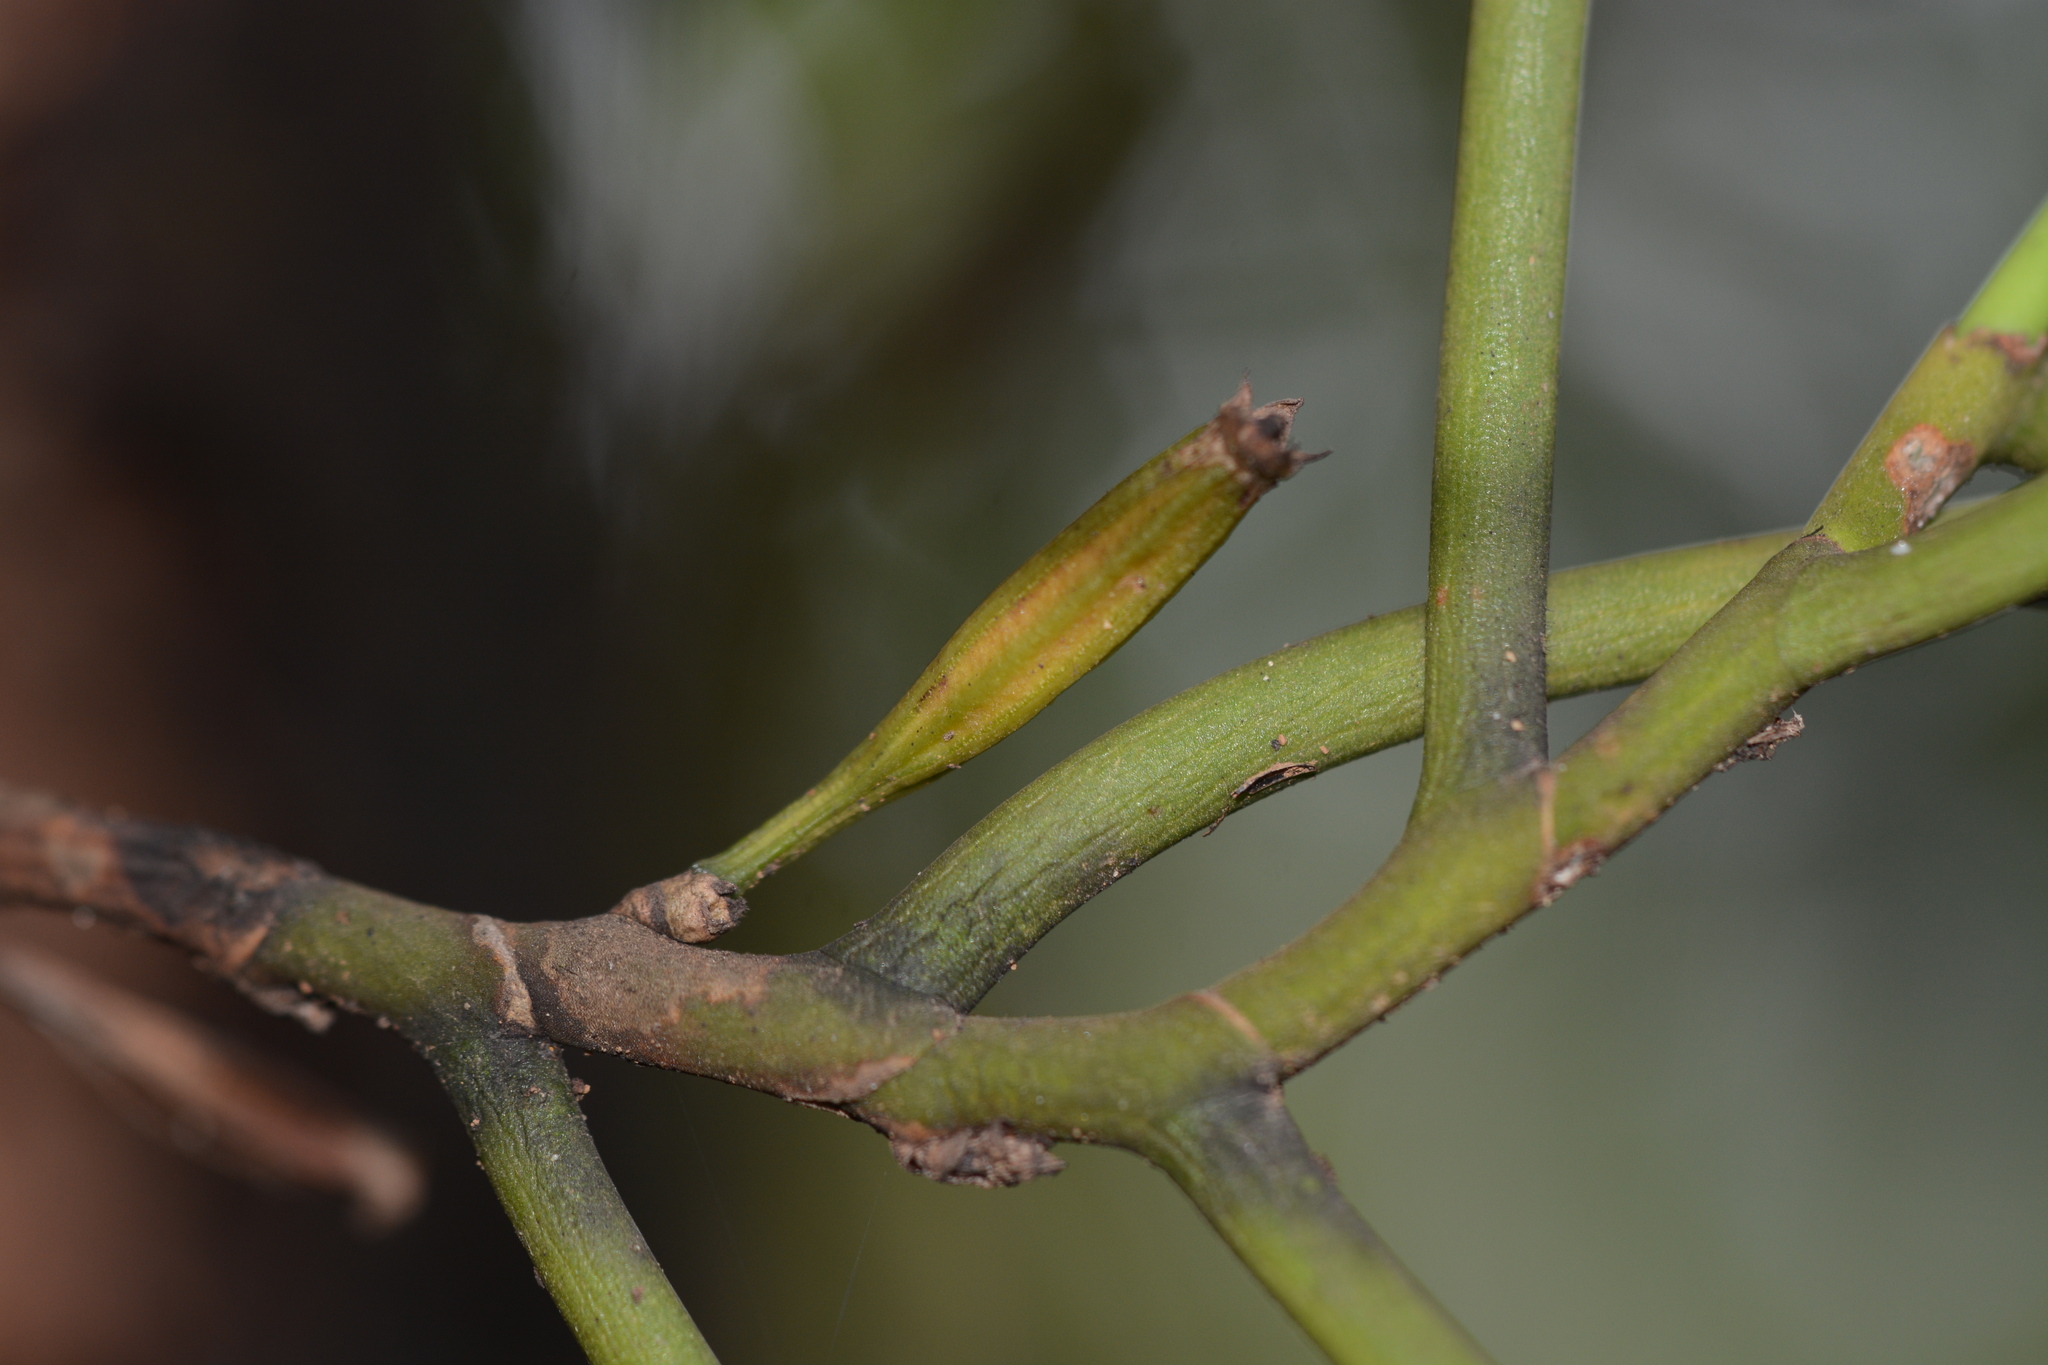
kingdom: Plantae
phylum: Tracheophyta
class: Liliopsida
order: Asparagales
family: Orchidaceae
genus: Luisia
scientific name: Luisia tristis
